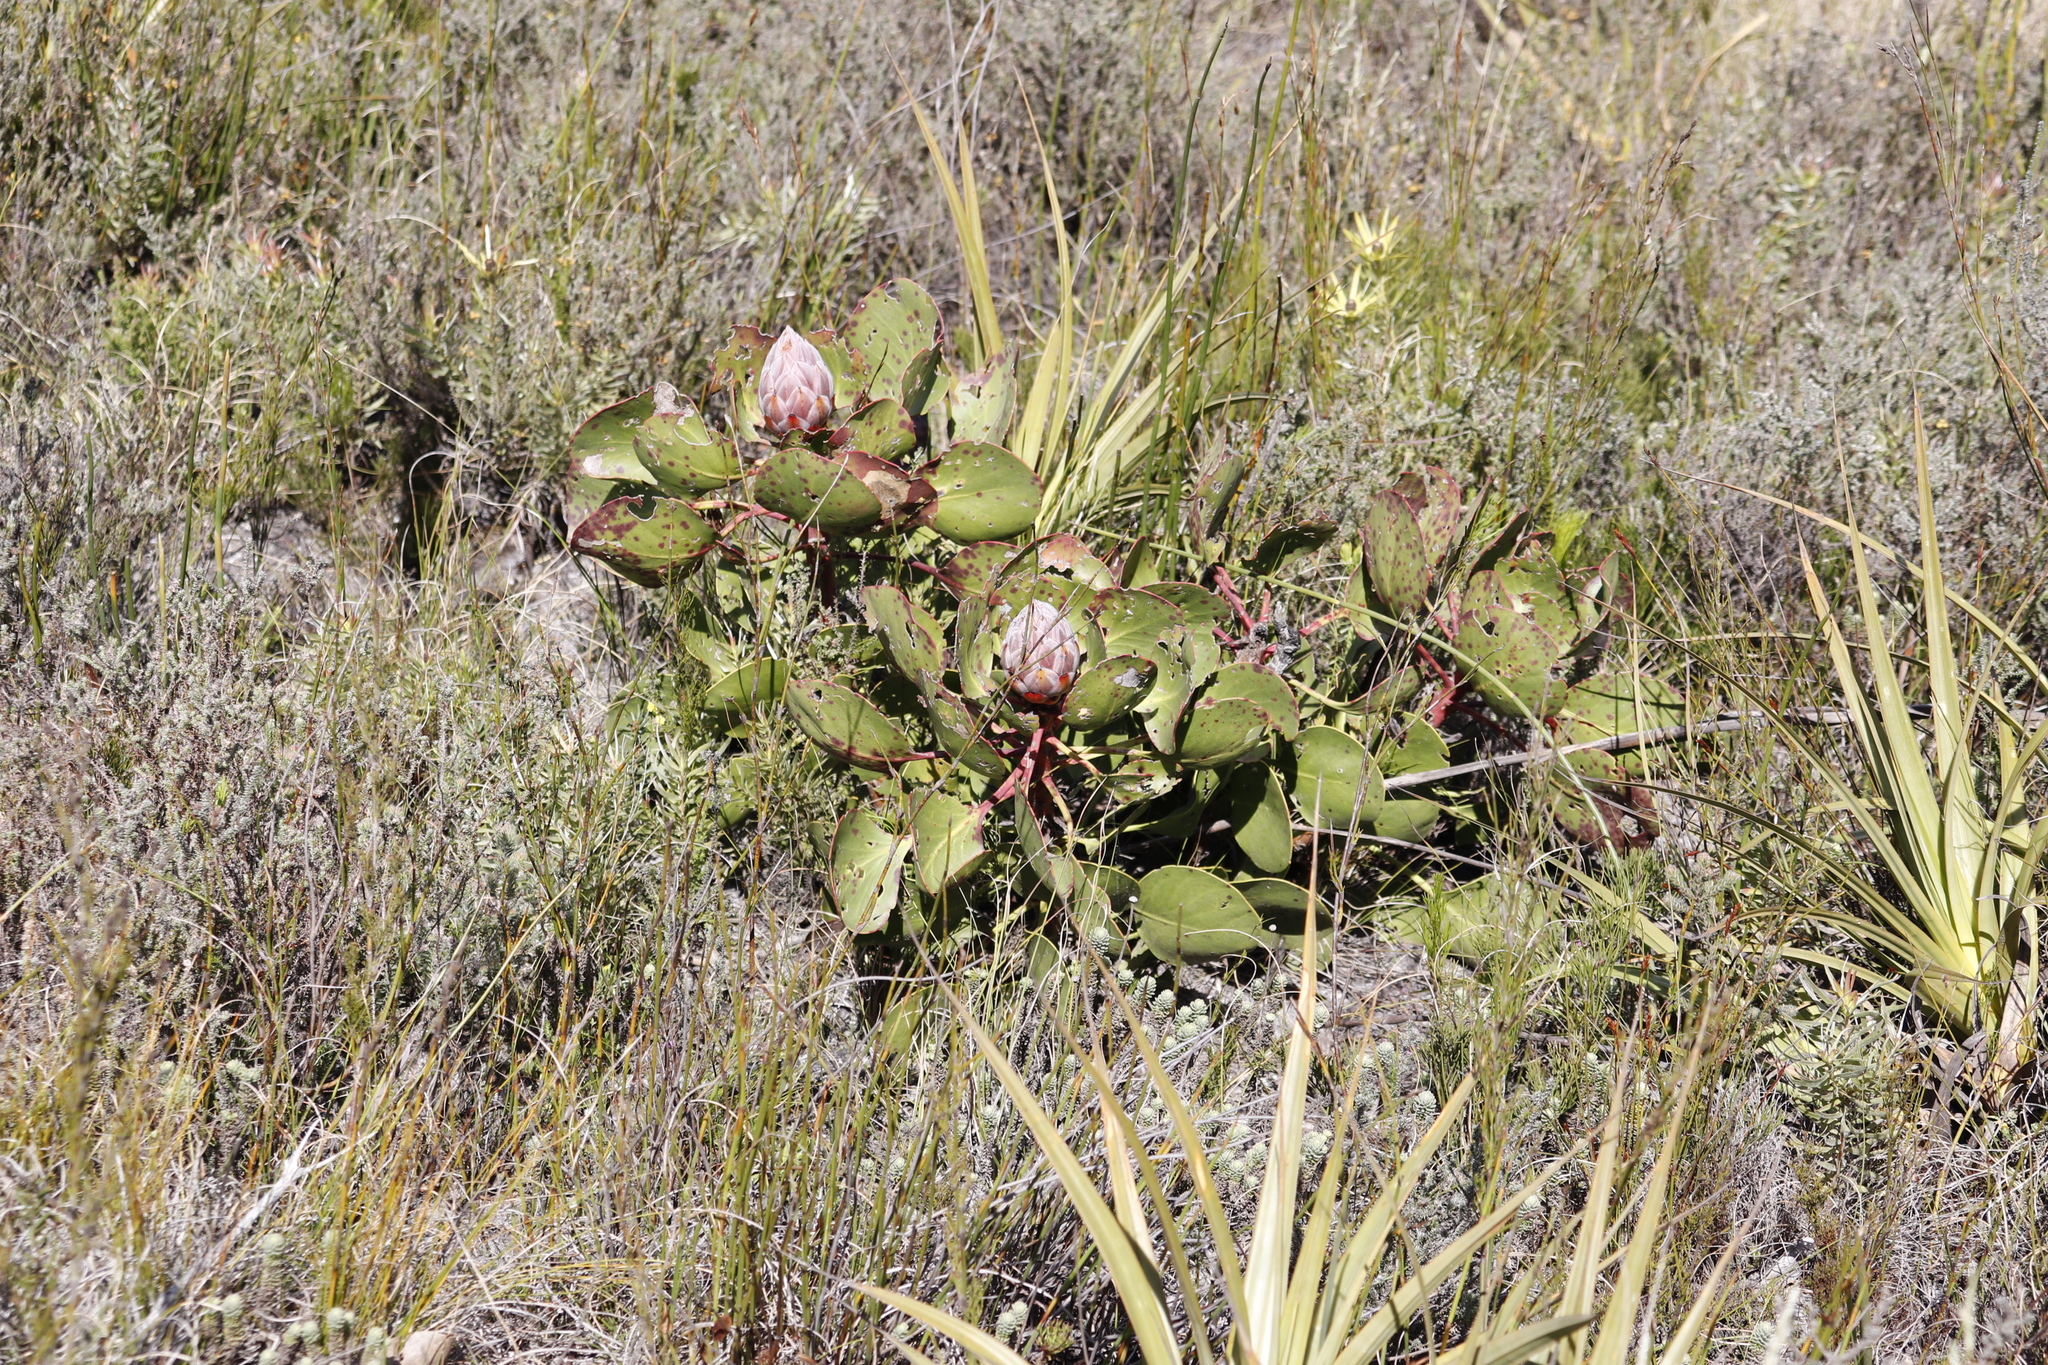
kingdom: Plantae
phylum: Tracheophyta
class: Magnoliopsida
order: Proteales
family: Proteaceae
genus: Protea
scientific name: Protea cynaroides
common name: King protea
